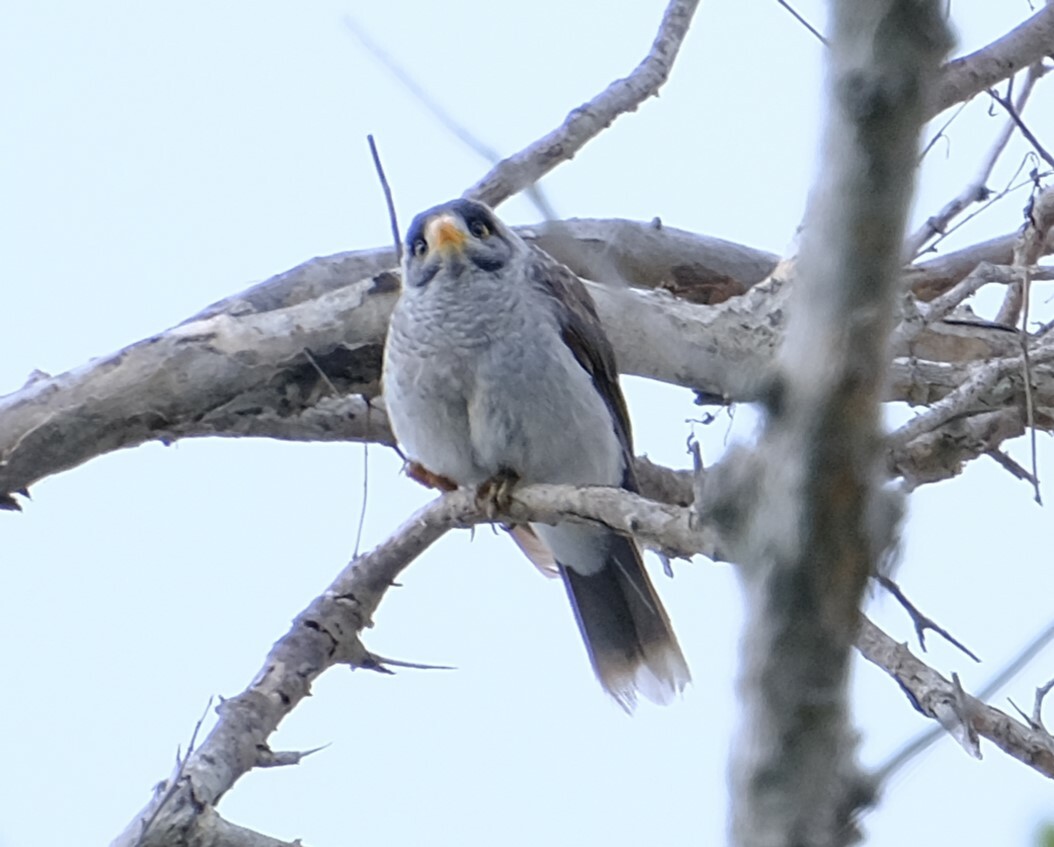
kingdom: Animalia
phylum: Chordata
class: Aves
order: Passeriformes
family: Meliphagidae
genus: Manorina
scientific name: Manorina melanocephala
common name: Noisy miner
